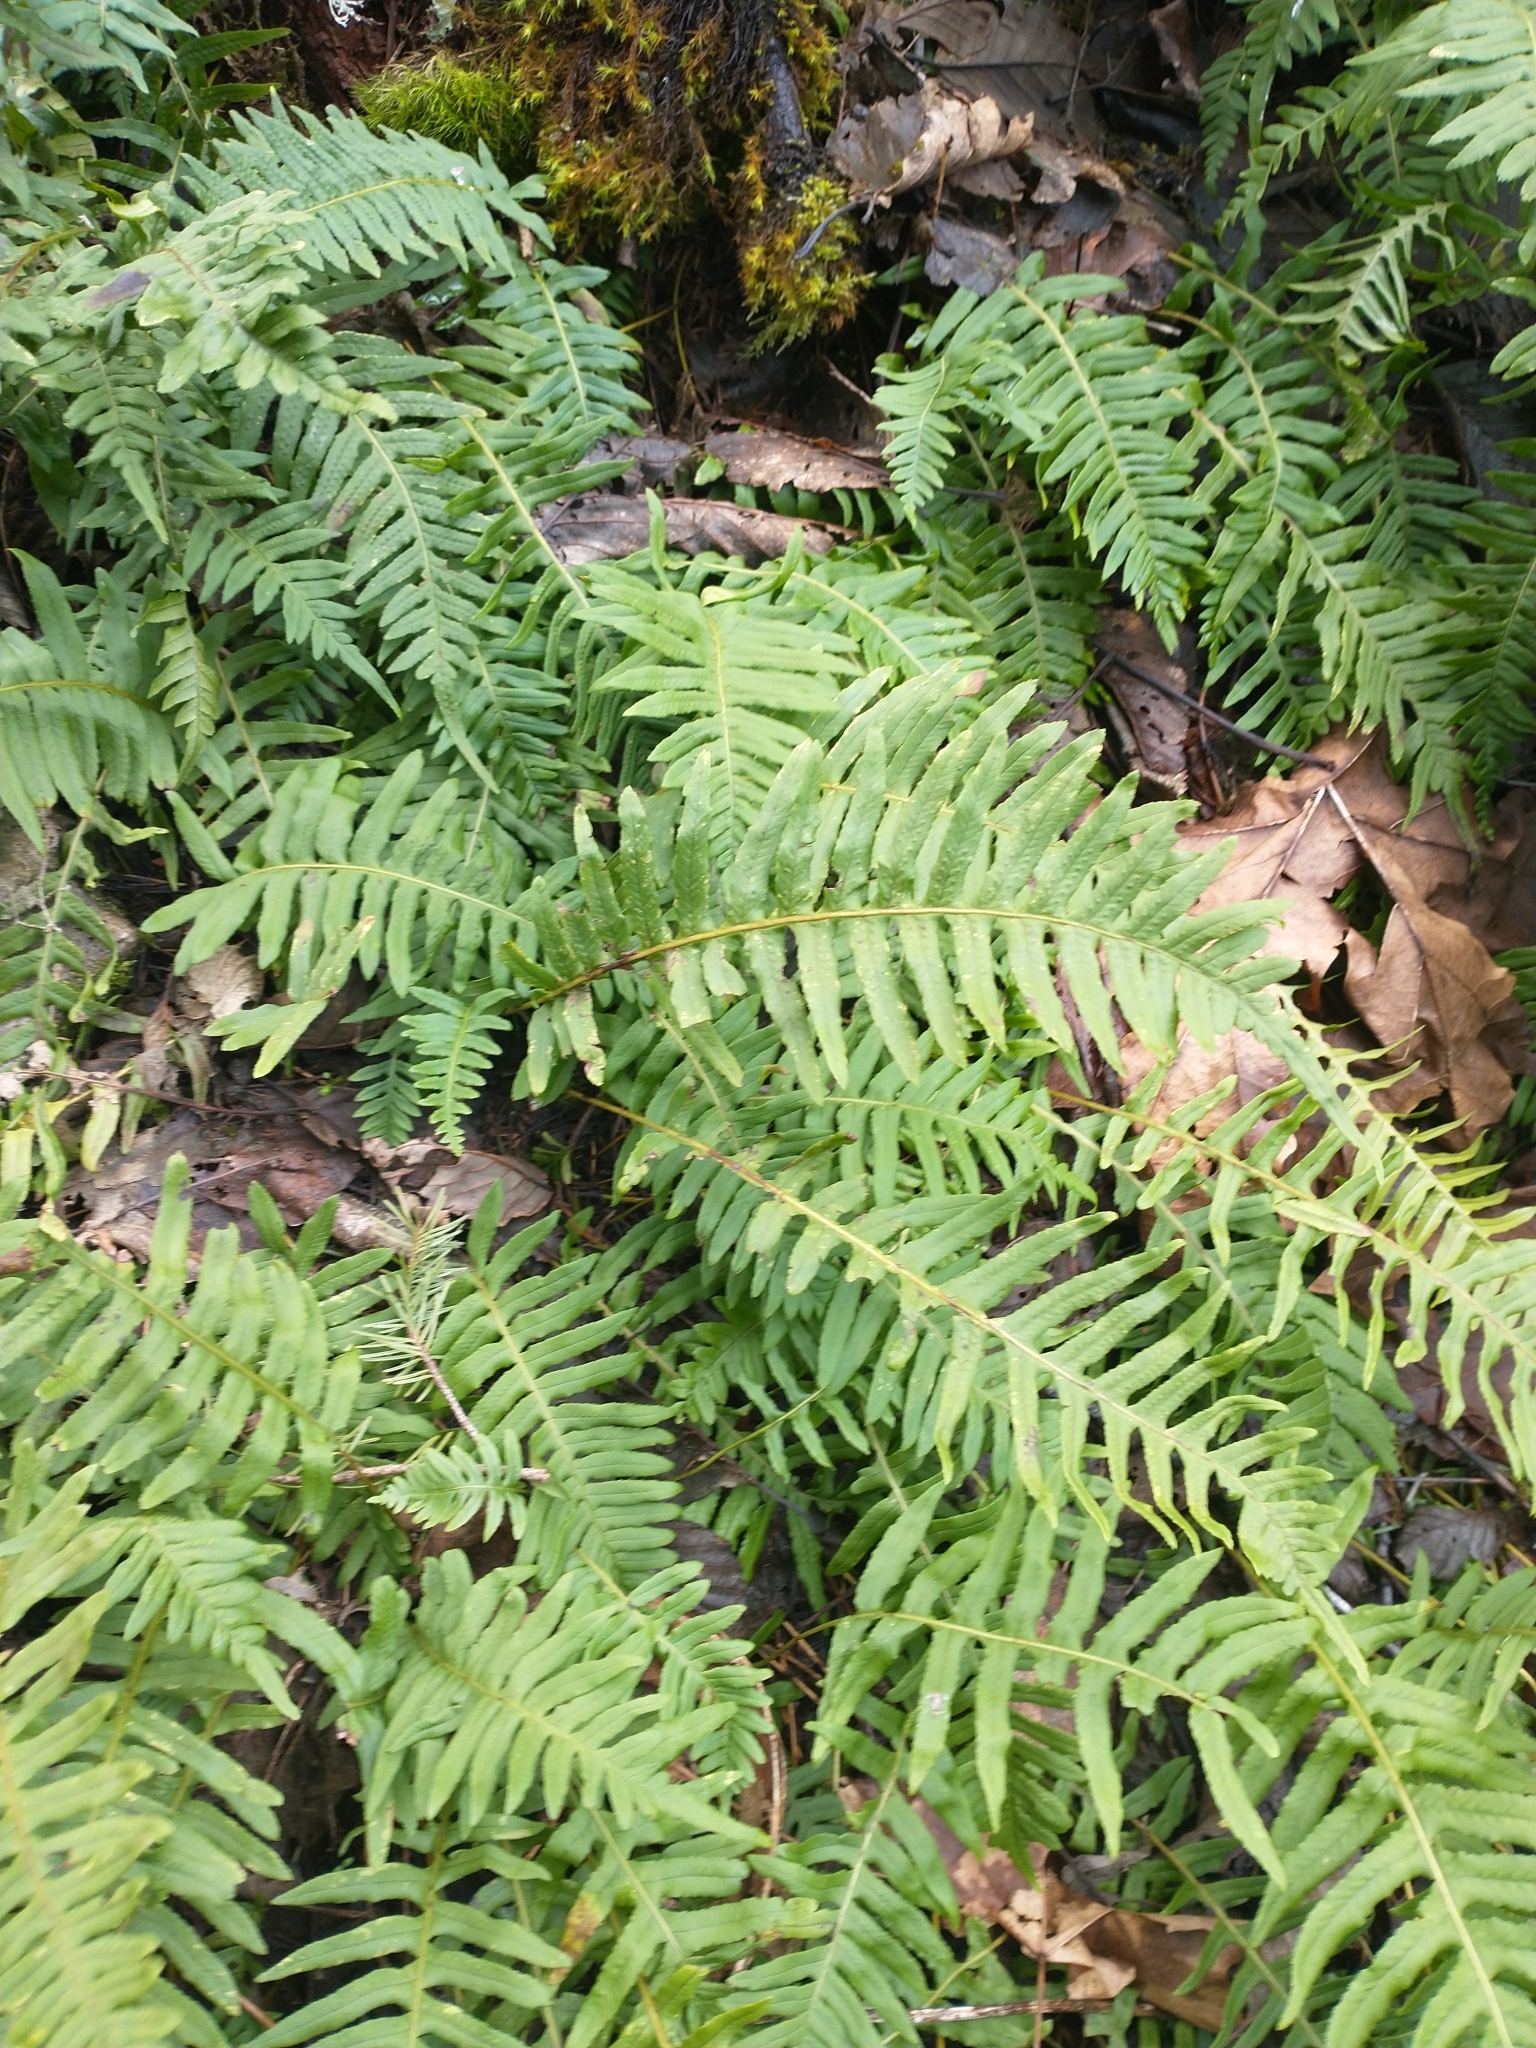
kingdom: Plantae
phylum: Tracheophyta
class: Polypodiopsida
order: Polypodiales
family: Polypodiaceae
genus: Polypodium
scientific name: Polypodium glycyrrhiza
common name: Licorice fern
